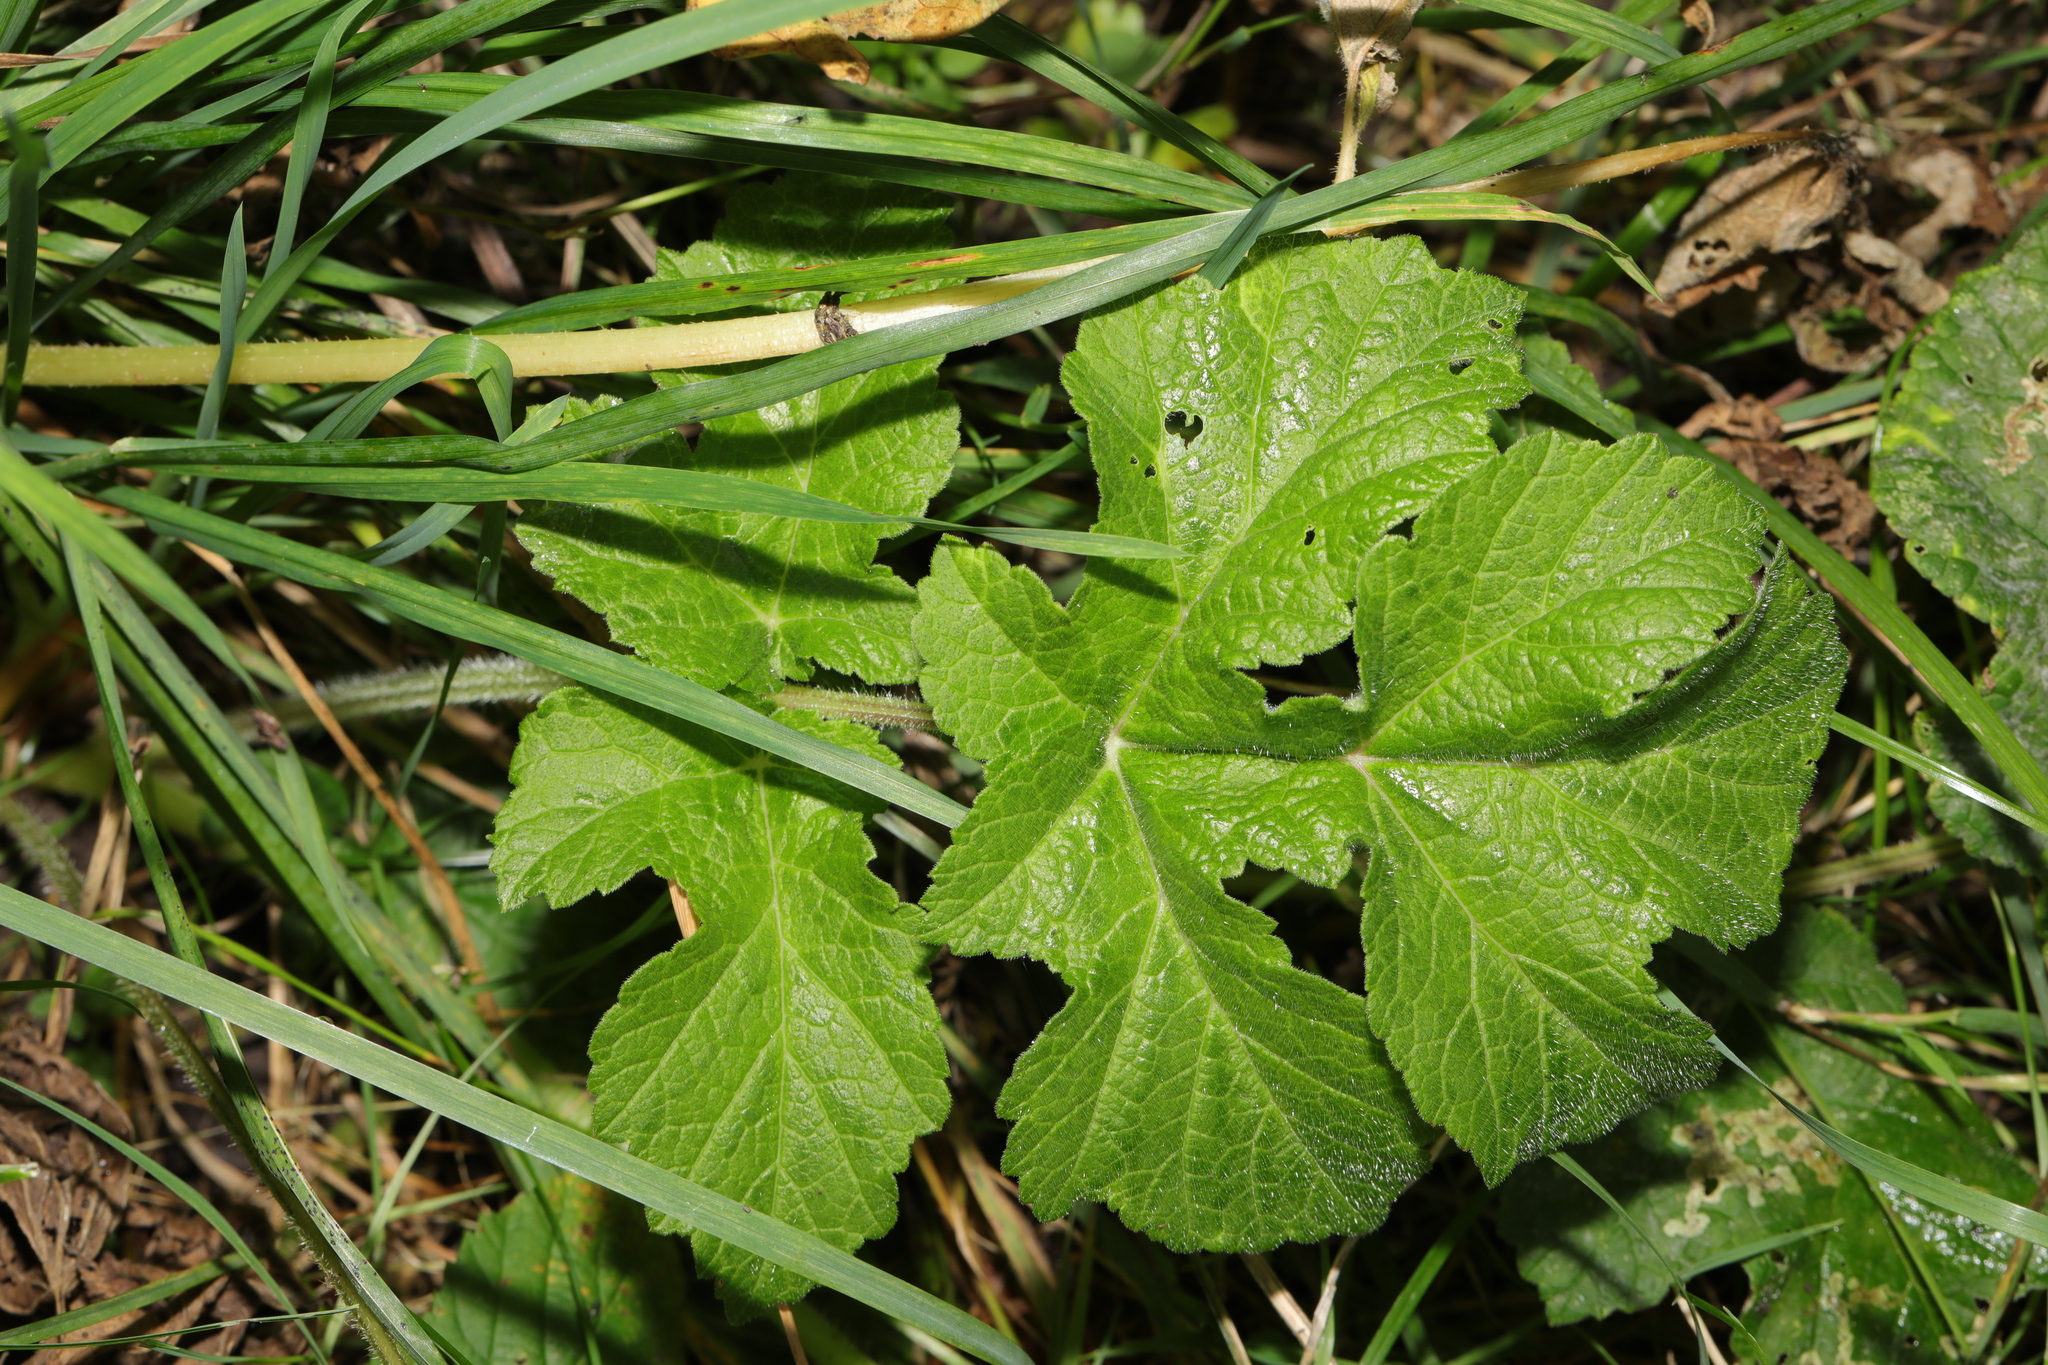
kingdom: Plantae
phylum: Tracheophyta
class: Magnoliopsida
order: Apiales
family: Apiaceae
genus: Heracleum
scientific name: Heracleum sphondylium
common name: Hogweed
